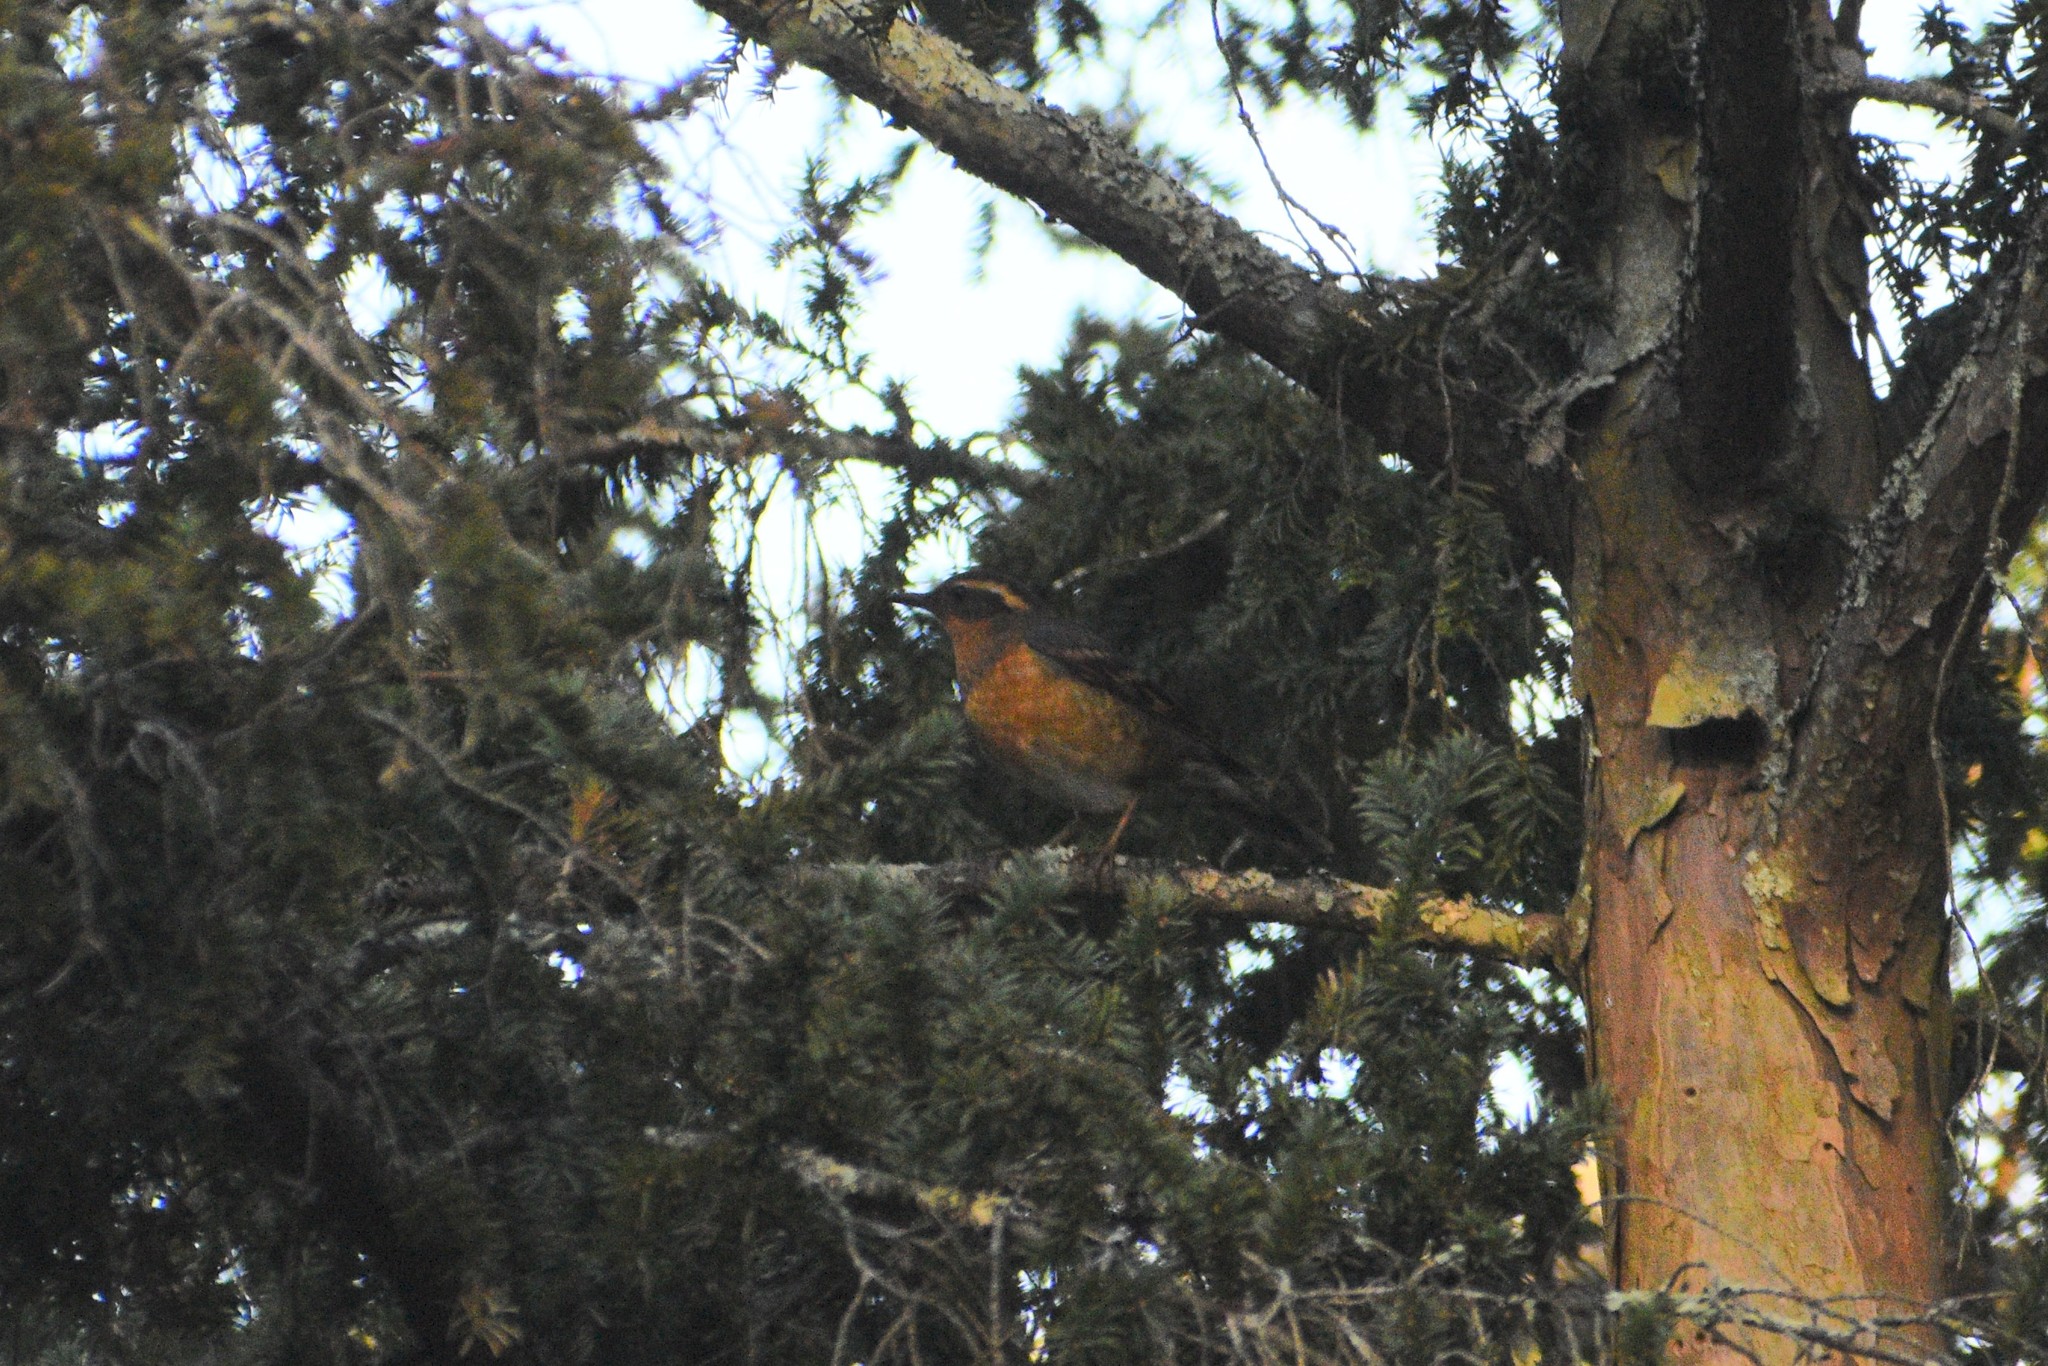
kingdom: Animalia
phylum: Chordata
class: Aves
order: Passeriformes
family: Turdidae
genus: Ixoreus
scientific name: Ixoreus naevius
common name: Varied thrush
